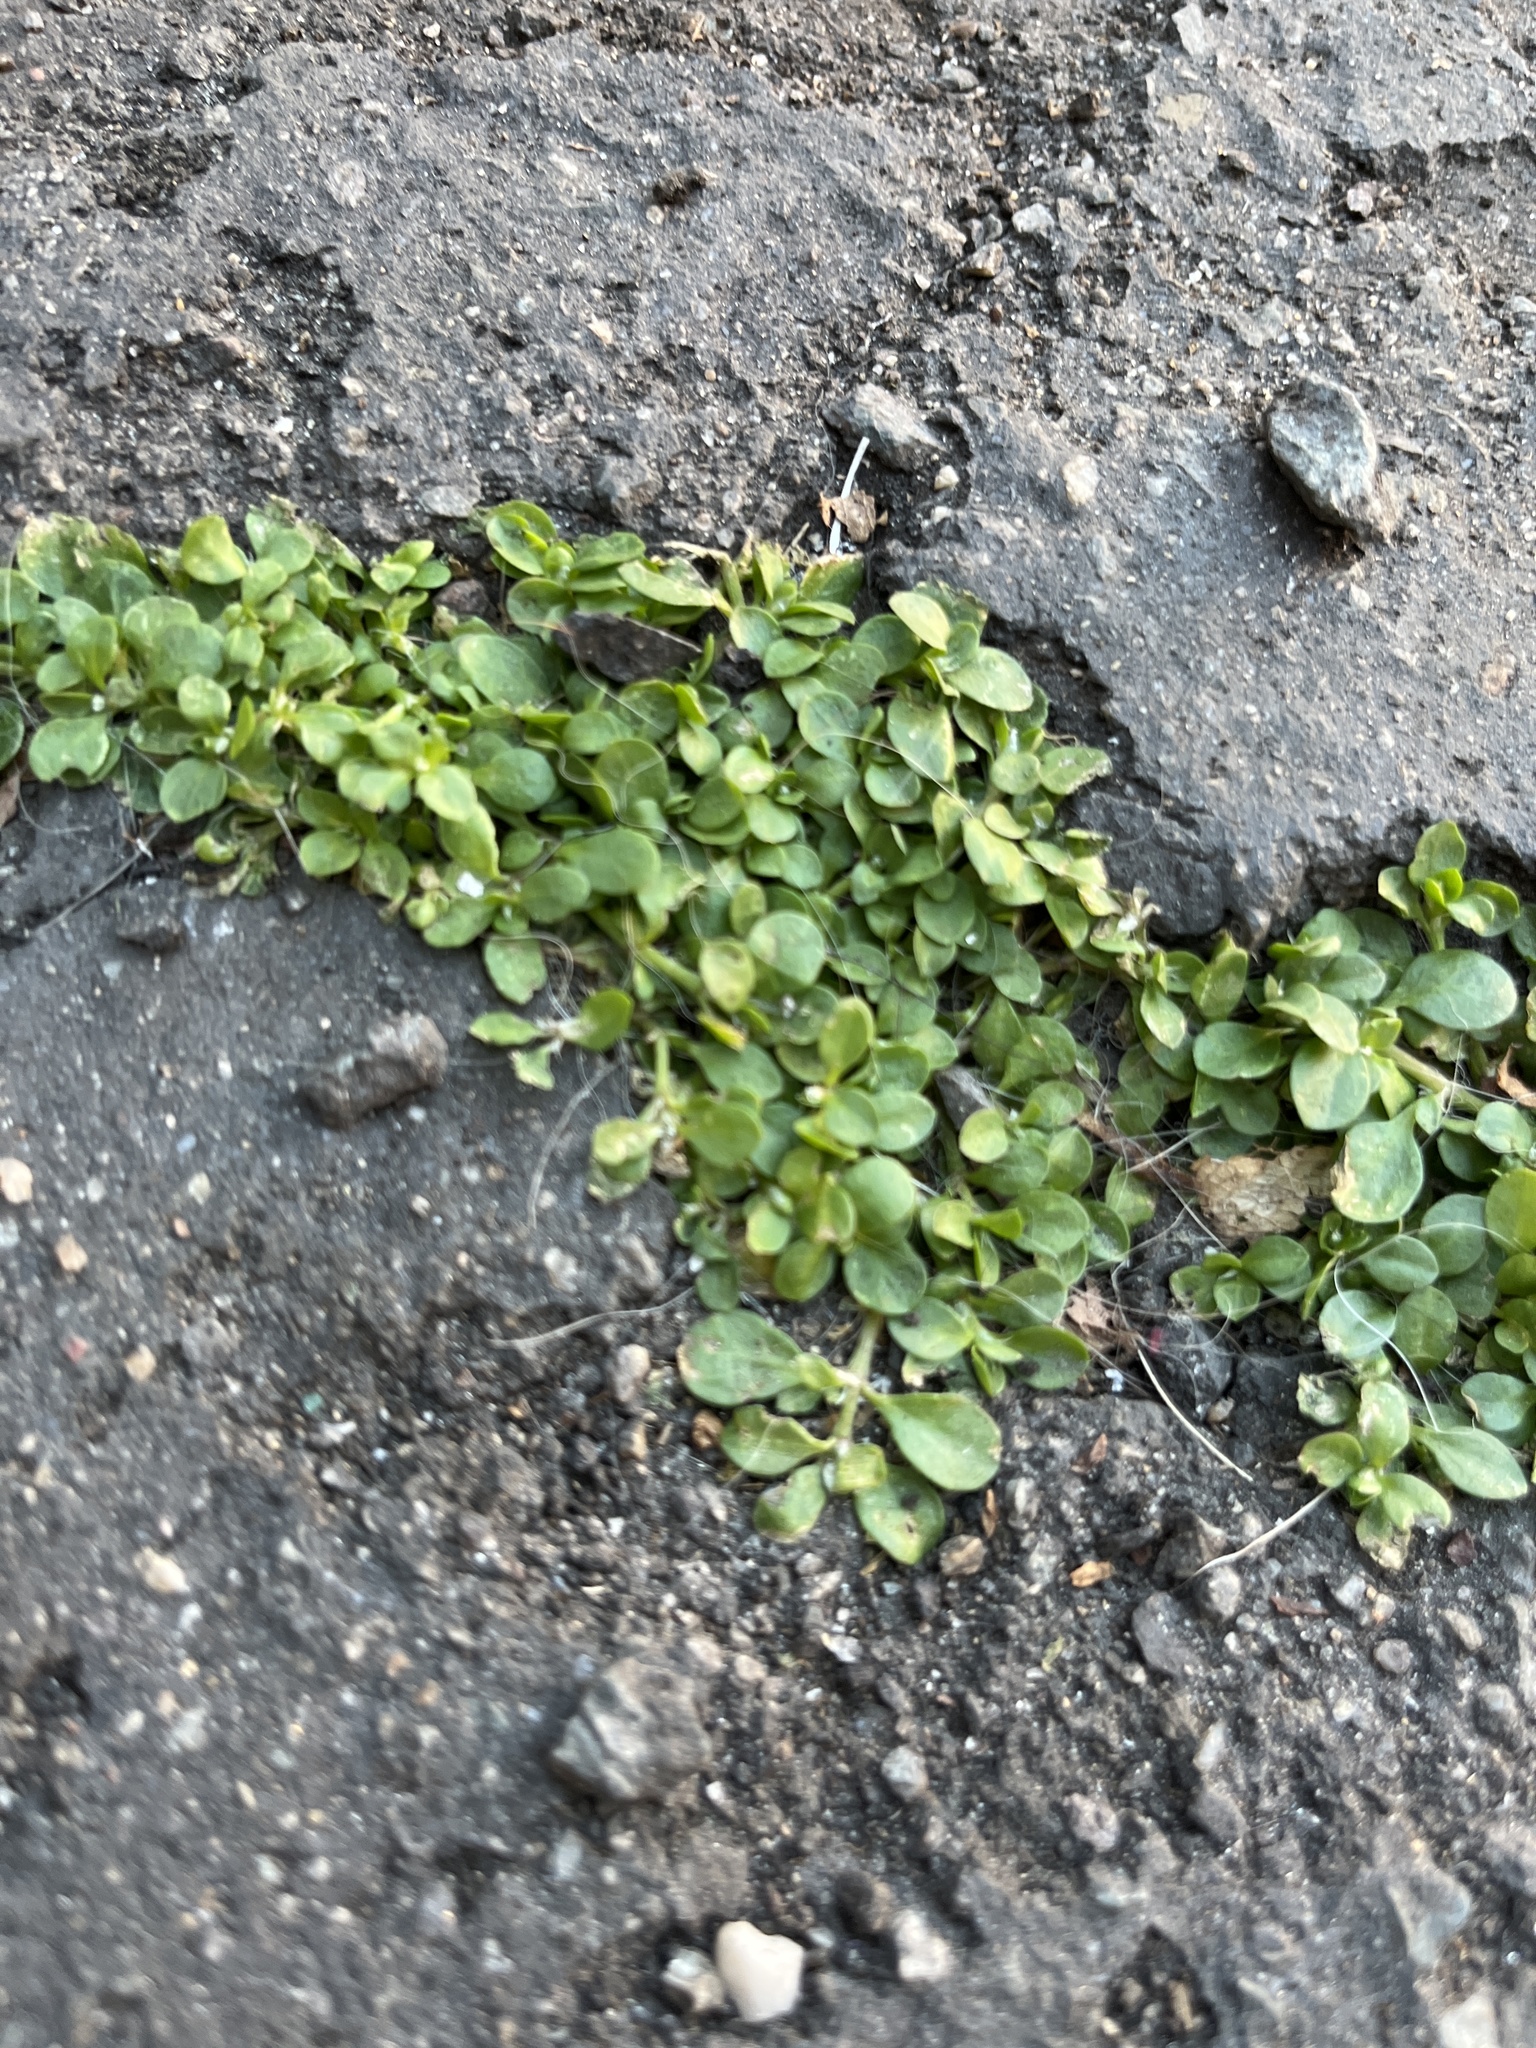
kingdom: Plantae
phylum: Tracheophyta
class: Magnoliopsida
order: Caryophyllales
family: Caryophyllaceae
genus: Polycarpon
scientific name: Polycarpon tetraphyllum
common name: Four-leaved all-seed
